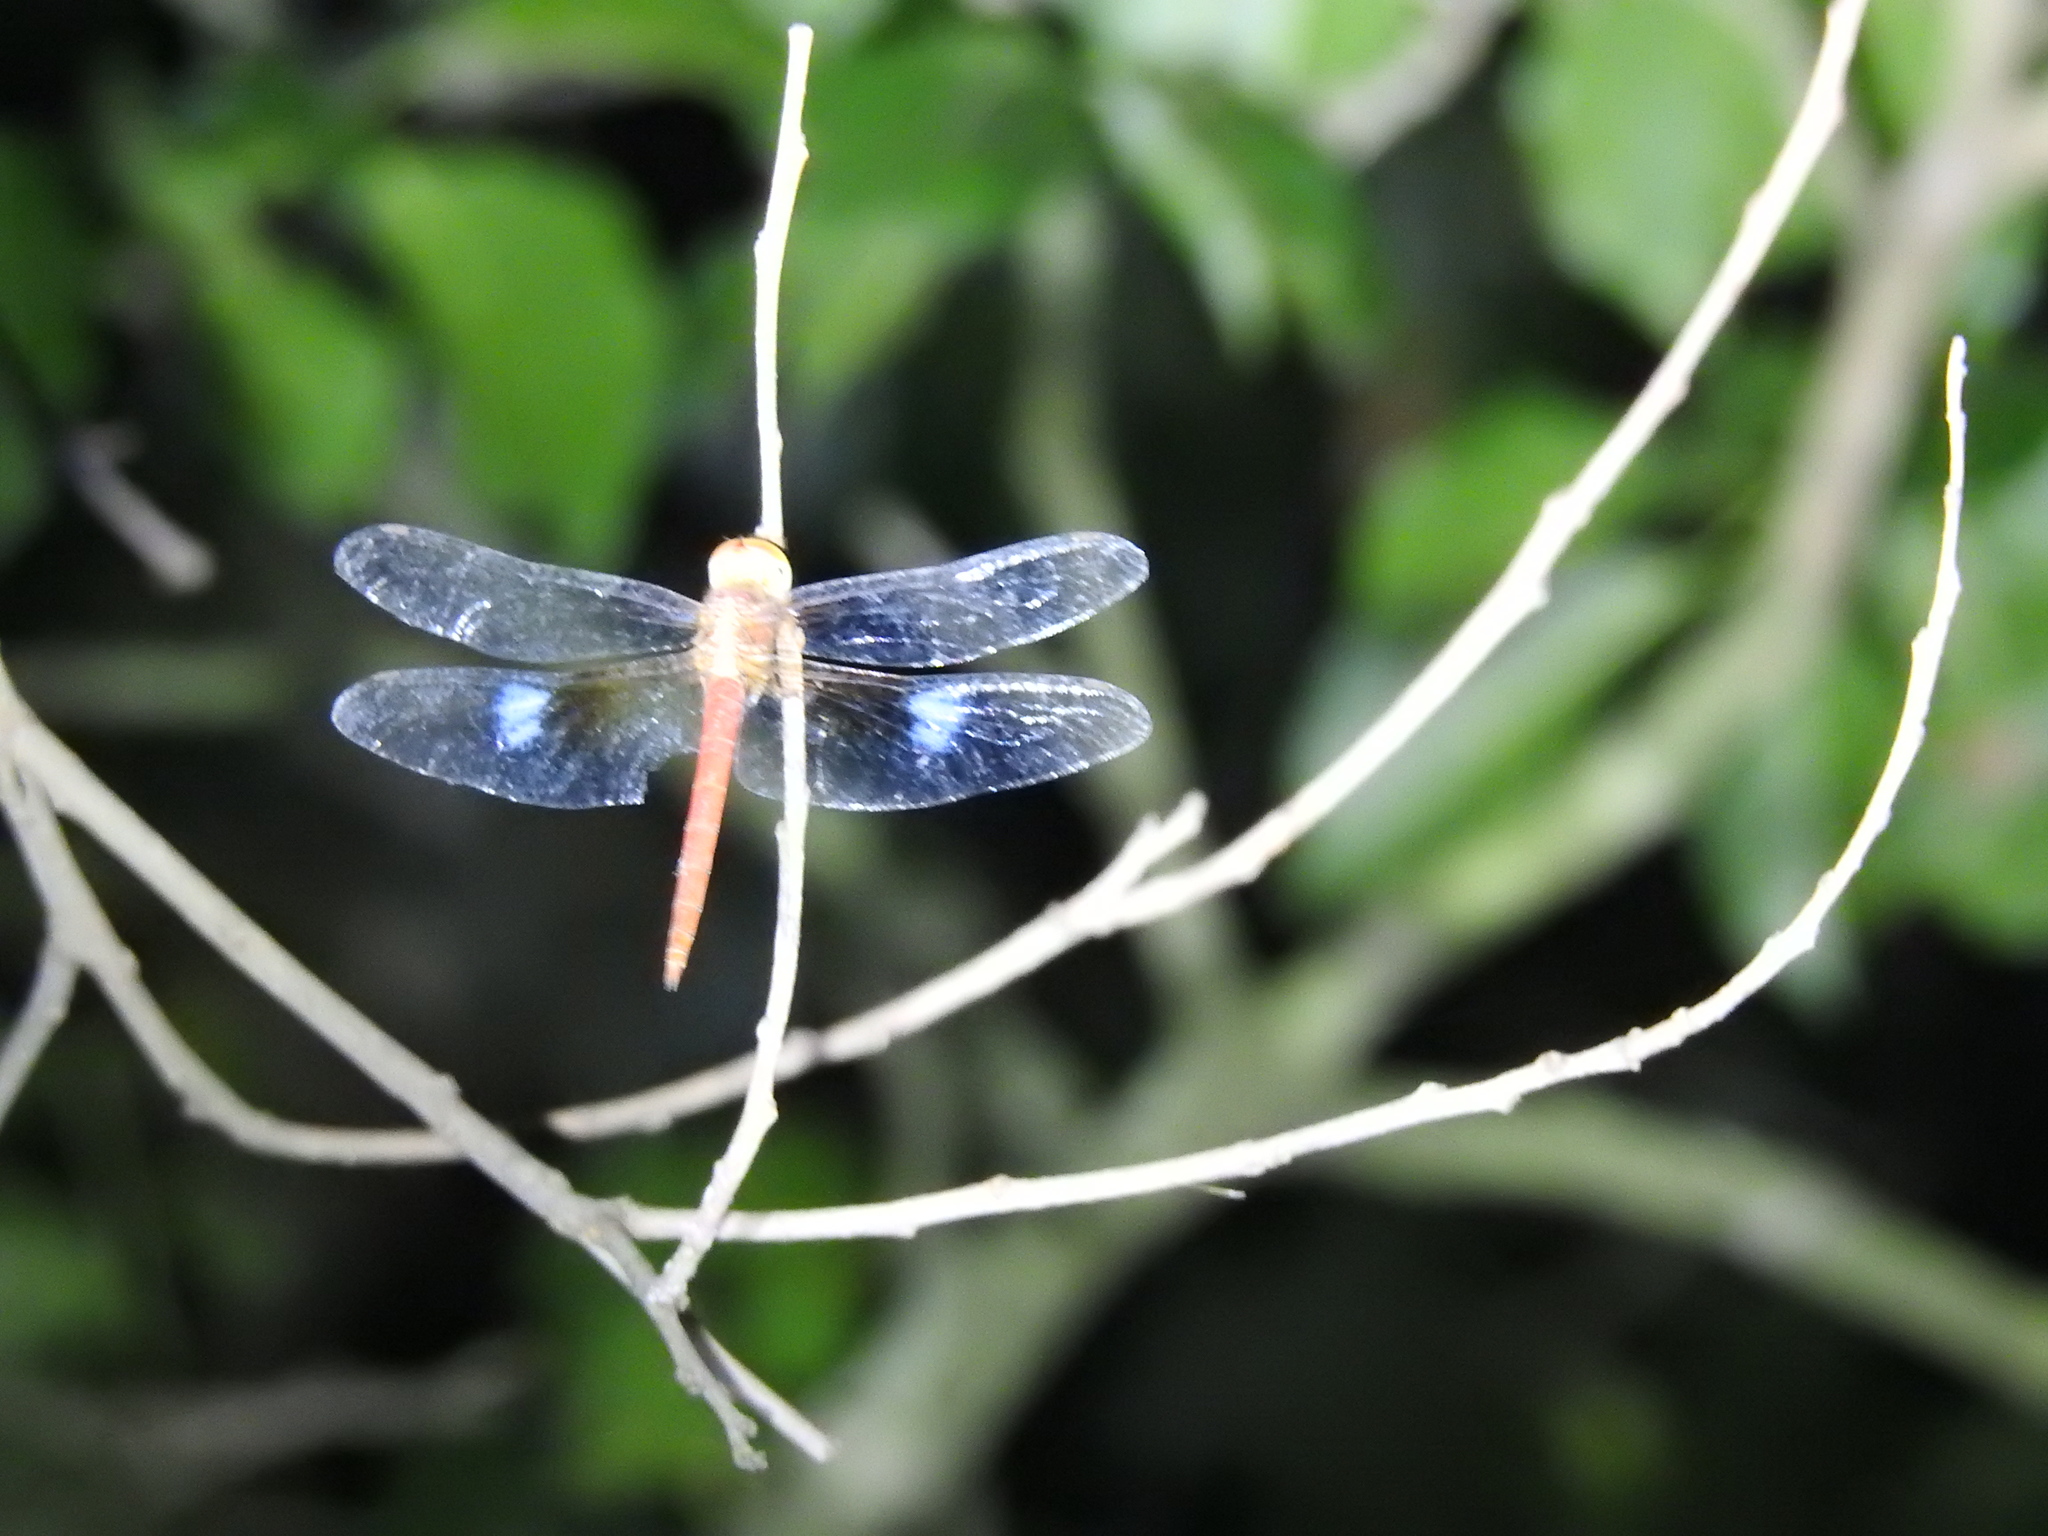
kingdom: Animalia
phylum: Arthropoda
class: Insecta
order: Odonata
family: Libellulidae
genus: Tholymis
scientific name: Tholymis tillarga
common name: Coral-tailed cloud wing
